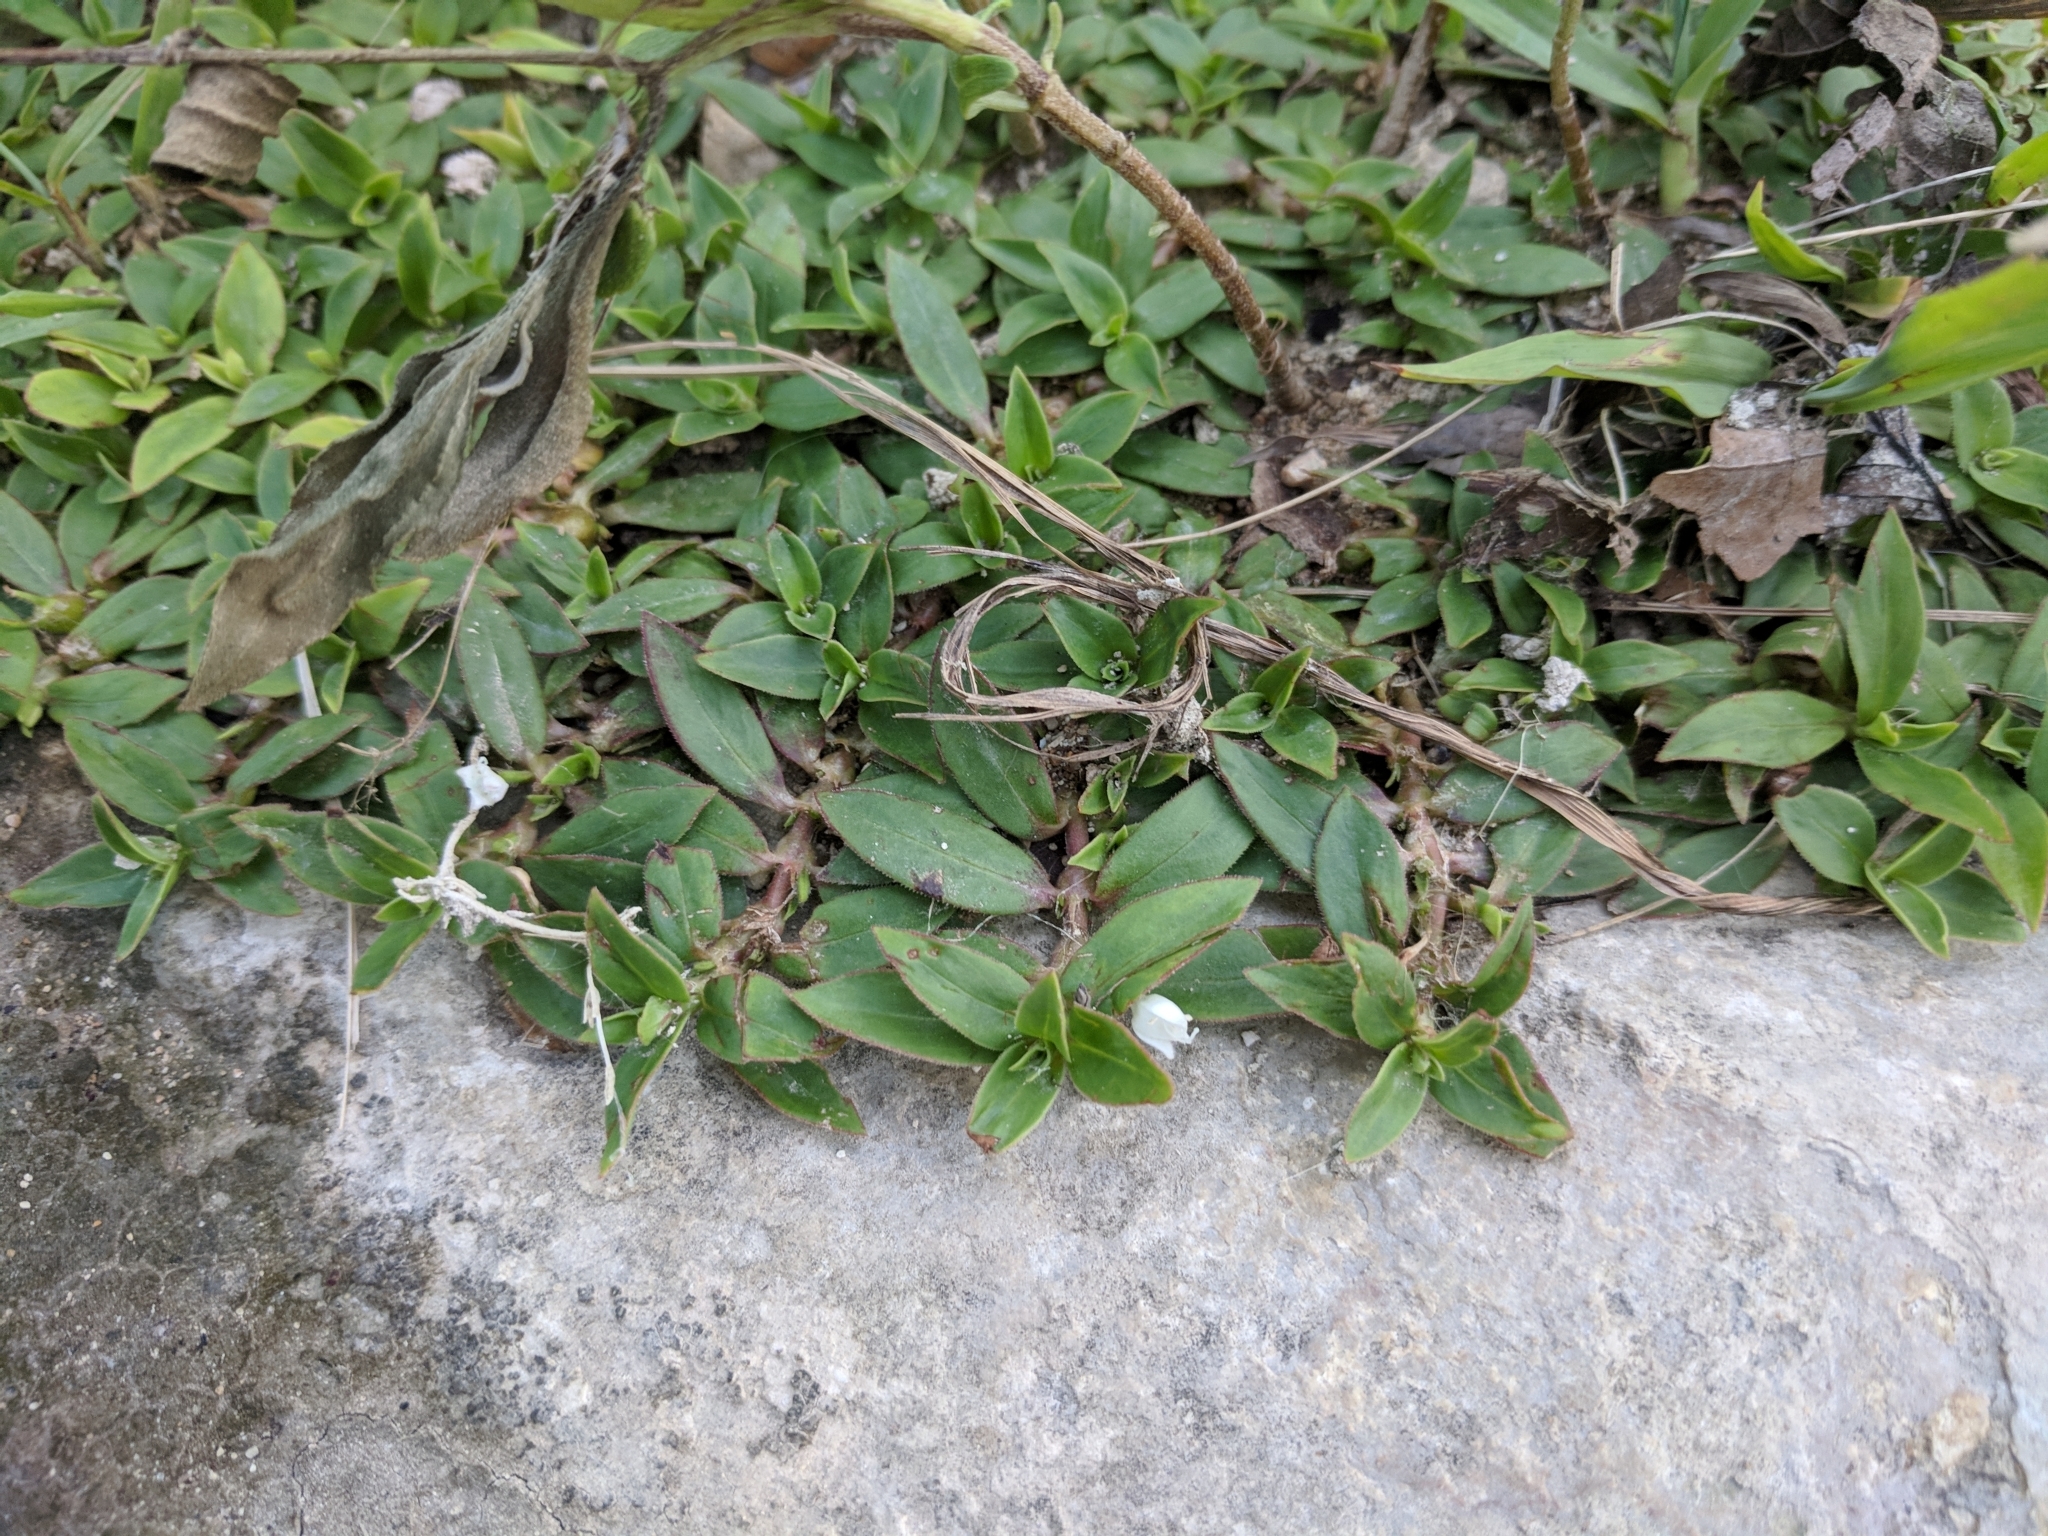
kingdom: Plantae
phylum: Tracheophyta
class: Magnoliopsida
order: Gentianales
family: Rubiaceae
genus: Diodia
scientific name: Diodia virginiana
